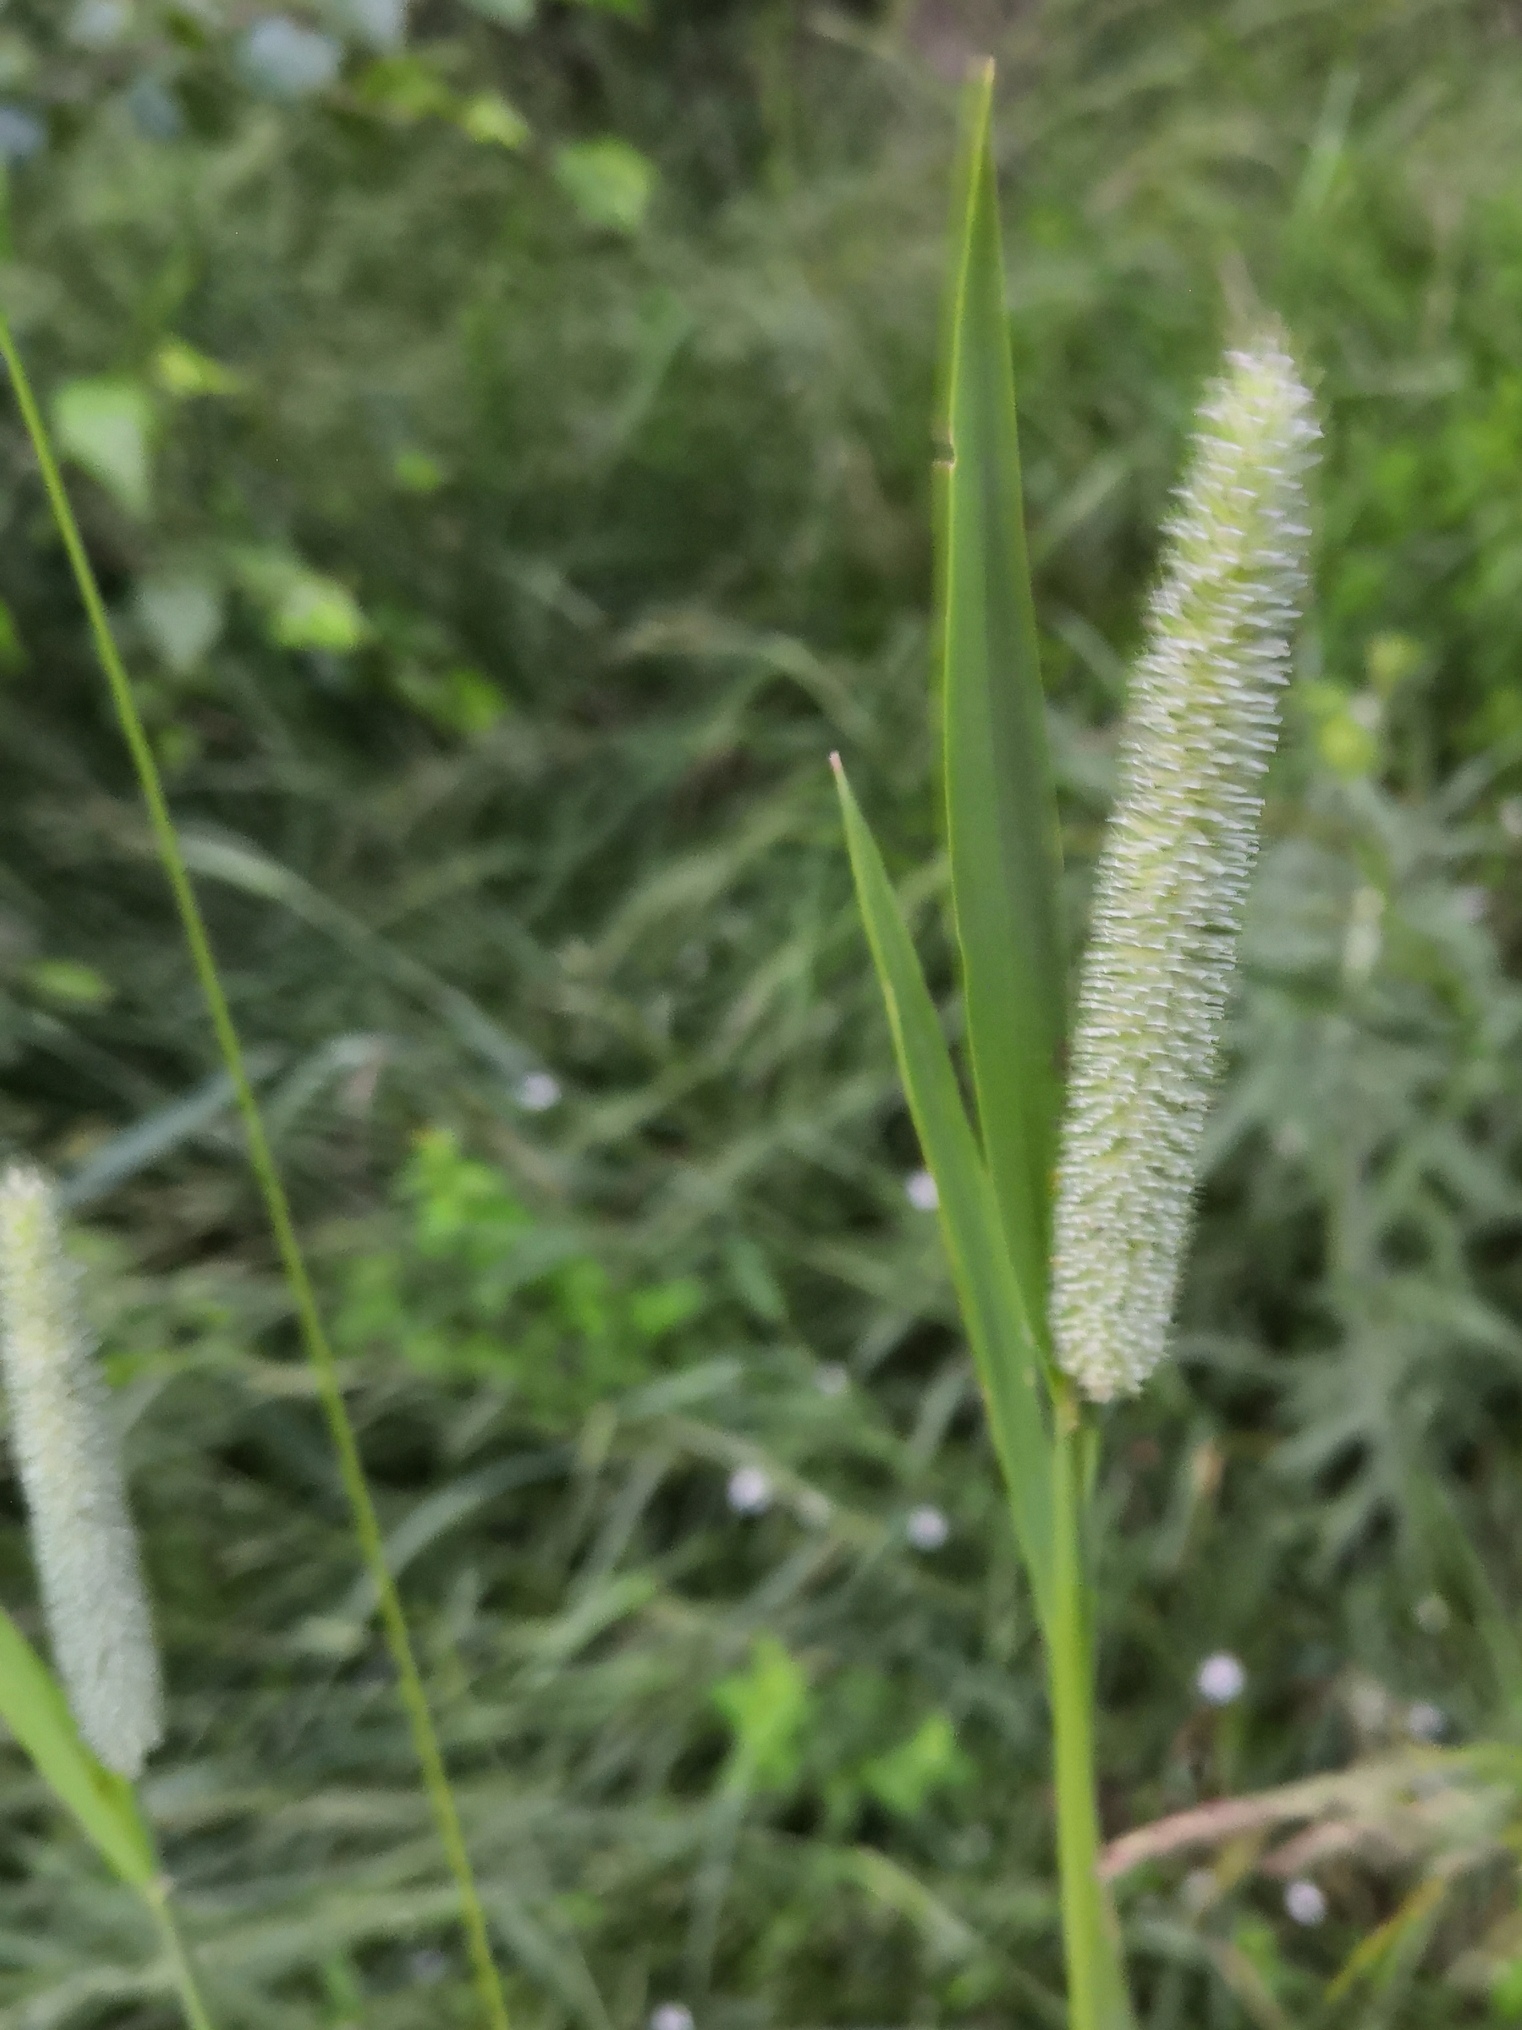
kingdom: Plantae
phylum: Tracheophyta
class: Liliopsida
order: Poales
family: Poaceae
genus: Phleum
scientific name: Phleum pratense
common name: Timothy grass
